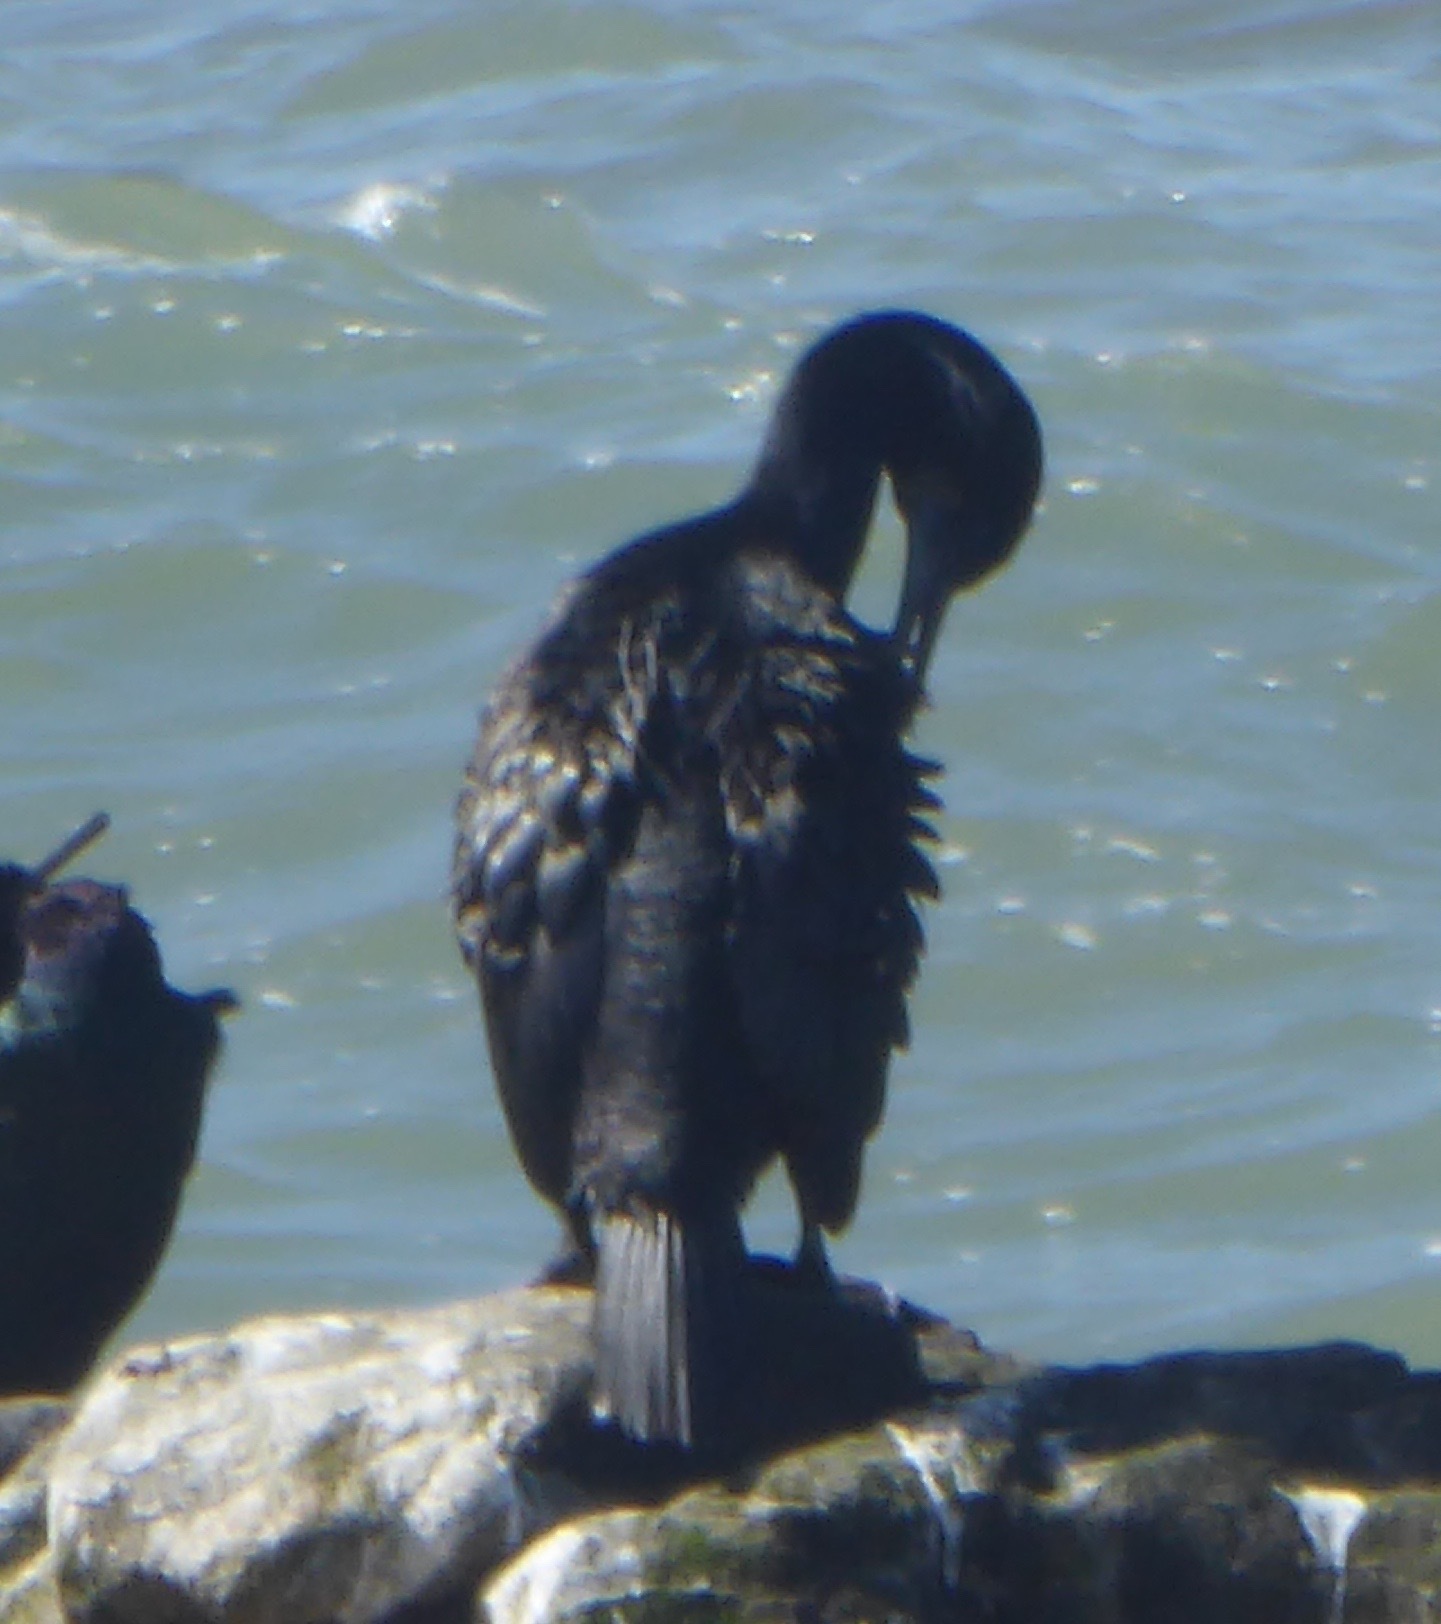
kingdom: Animalia
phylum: Chordata
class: Aves
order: Suliformes
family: Phalacrocoracidae
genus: Phalacrocorax
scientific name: Phalacrocorax pelagicus
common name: Pelagic cormorant
